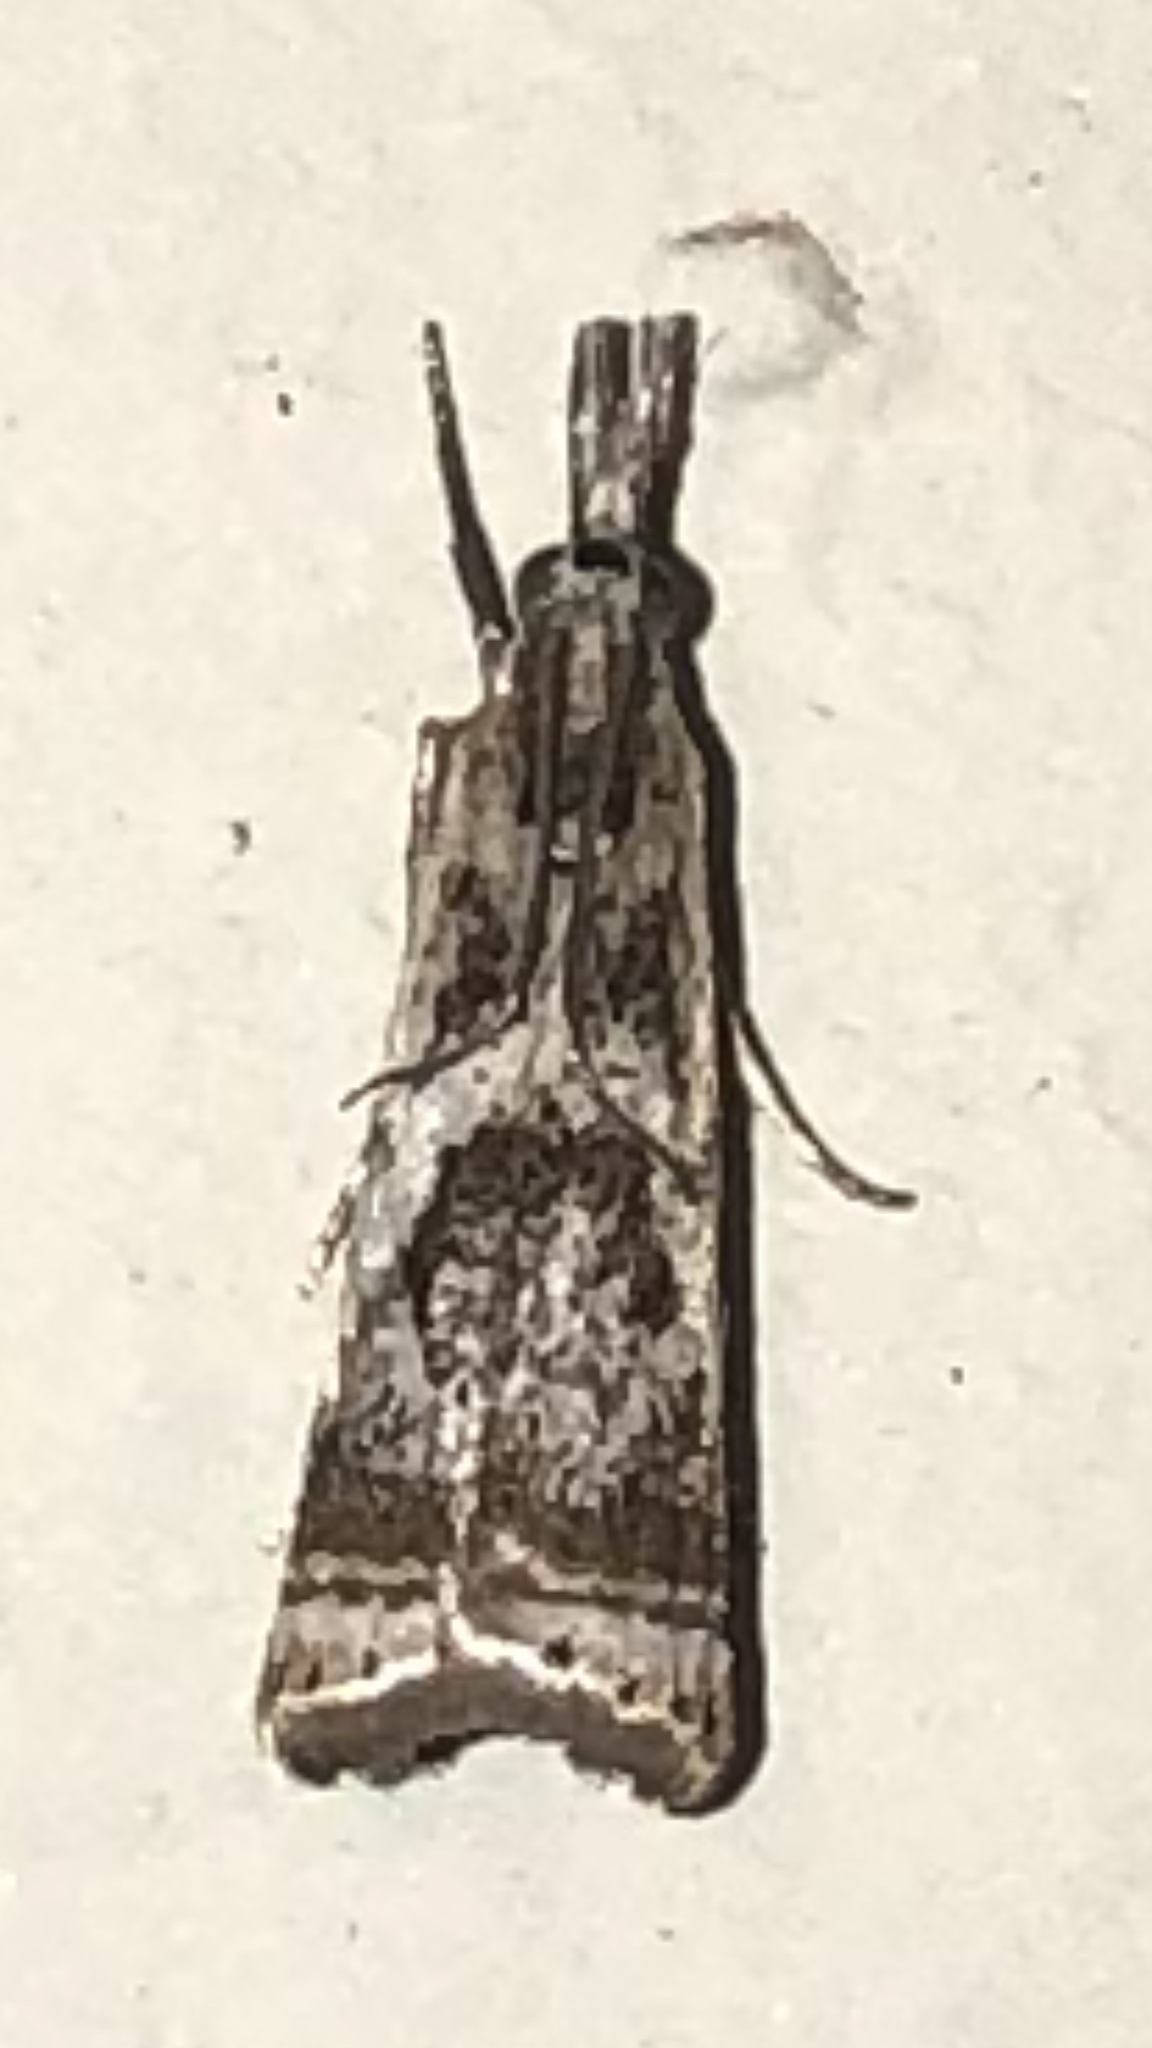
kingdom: Animalia
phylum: Arthropoda
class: Insecta
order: Lepidoptera
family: Crambidae
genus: Microcrambus
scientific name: Microcrambus elegans
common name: Elegant grass-veneer
